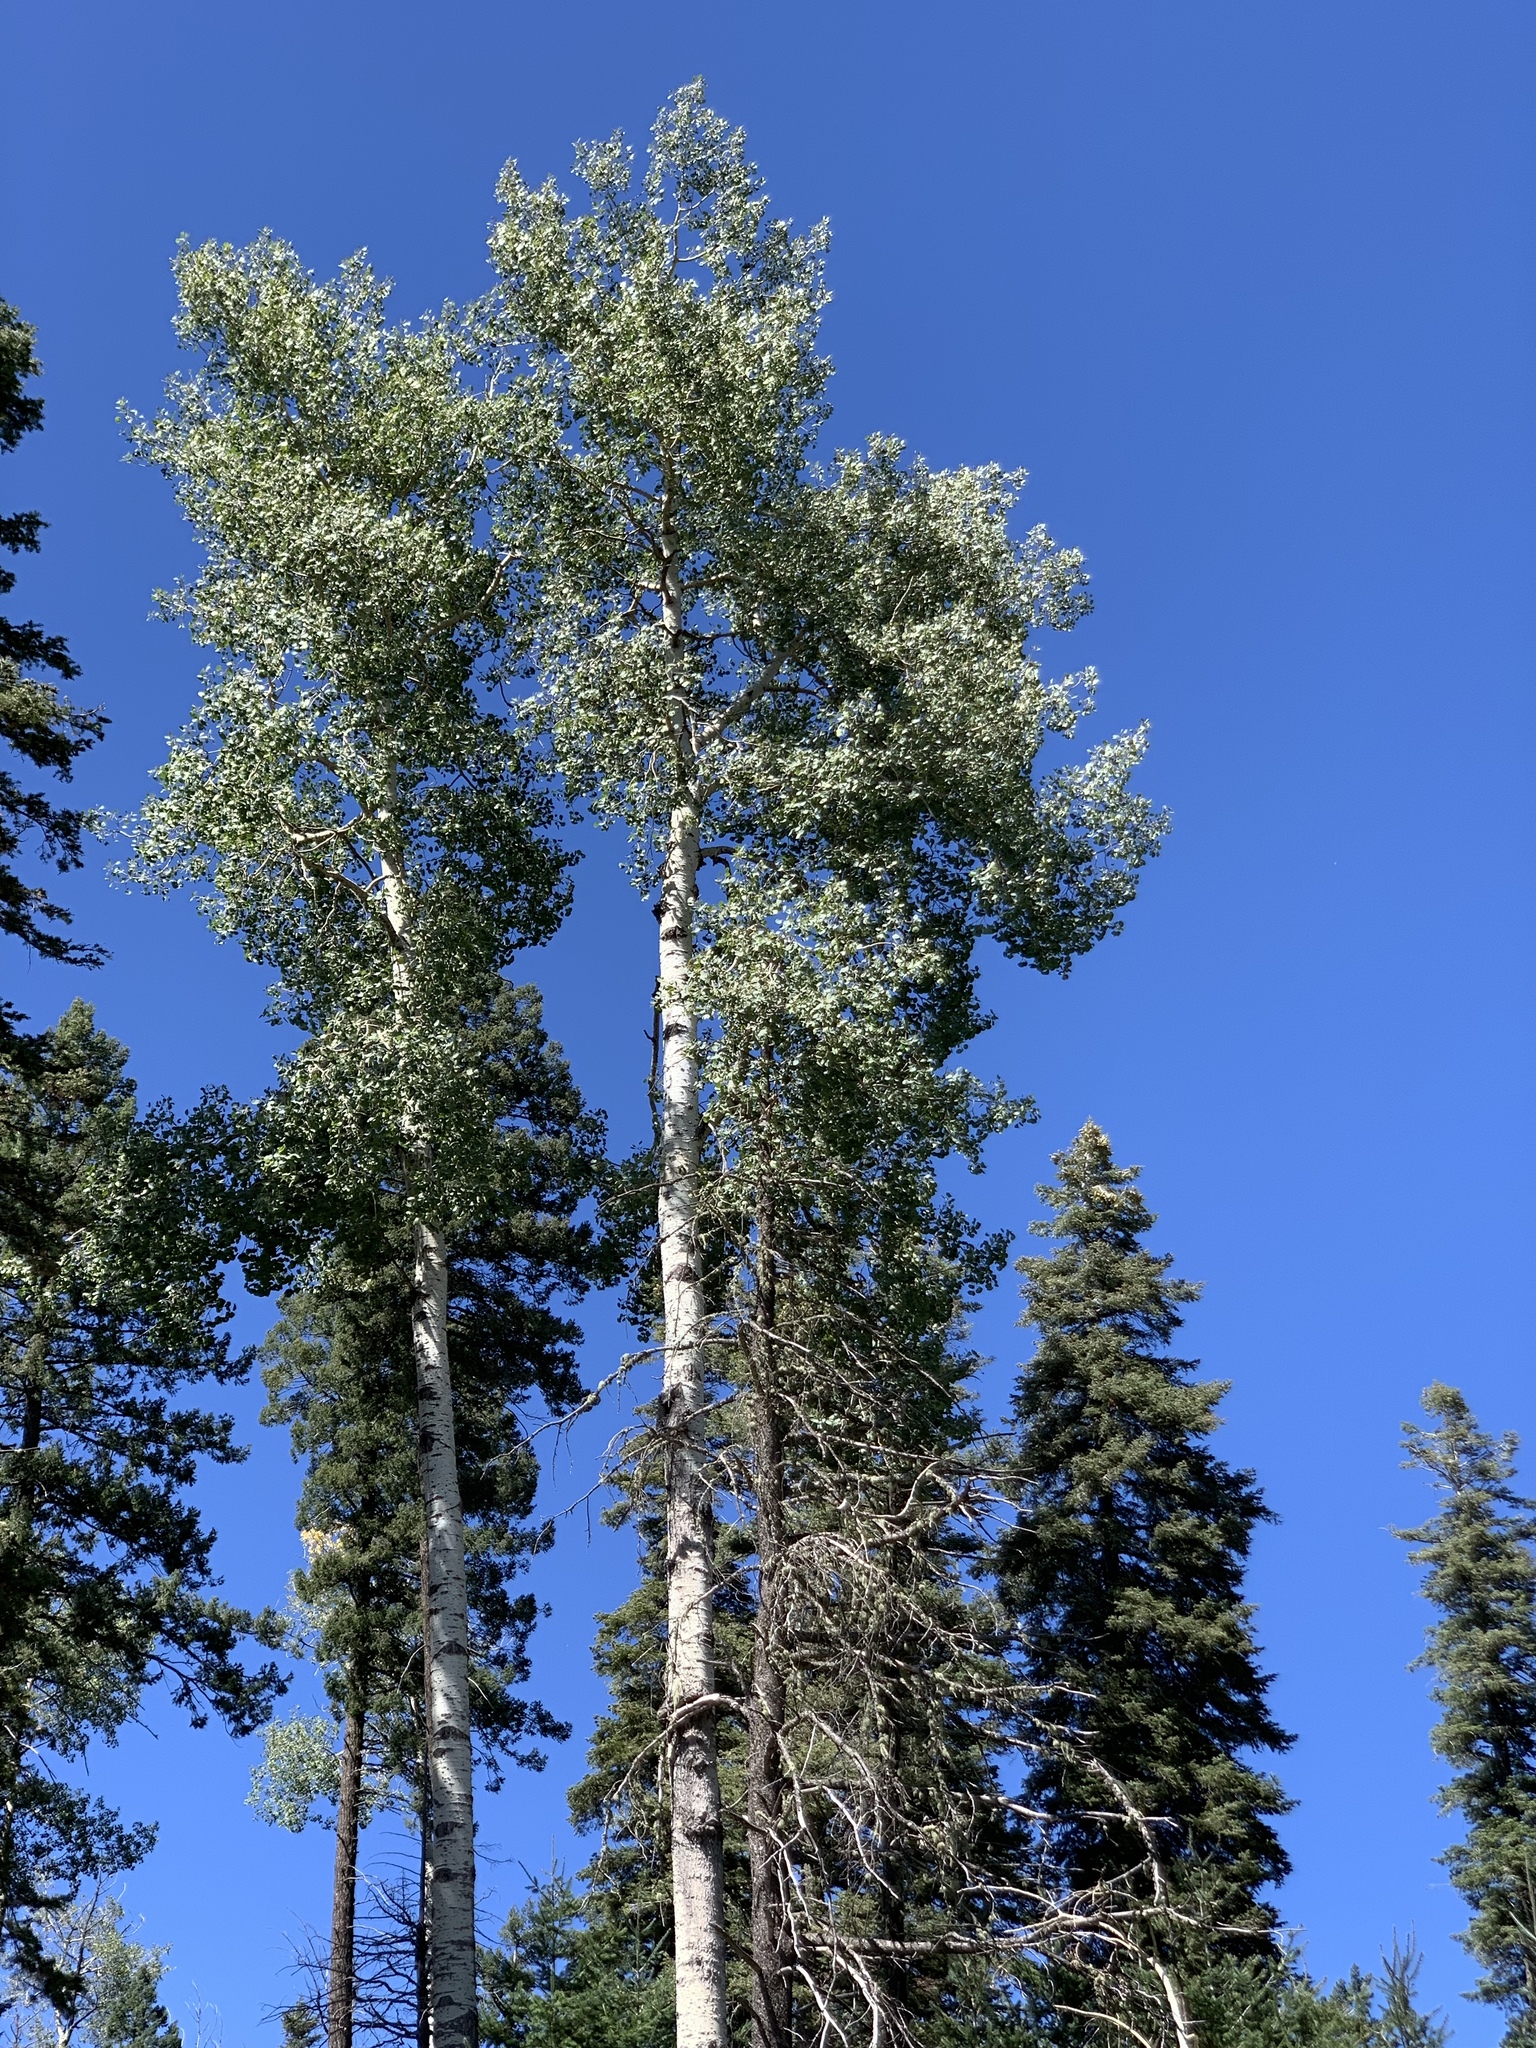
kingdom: Plantae
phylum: Tracheophyta
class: Magnoliopsida
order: Malpighiales
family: Salicaceae
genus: Populus
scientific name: Populus tremuloides
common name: Quaking aspen
